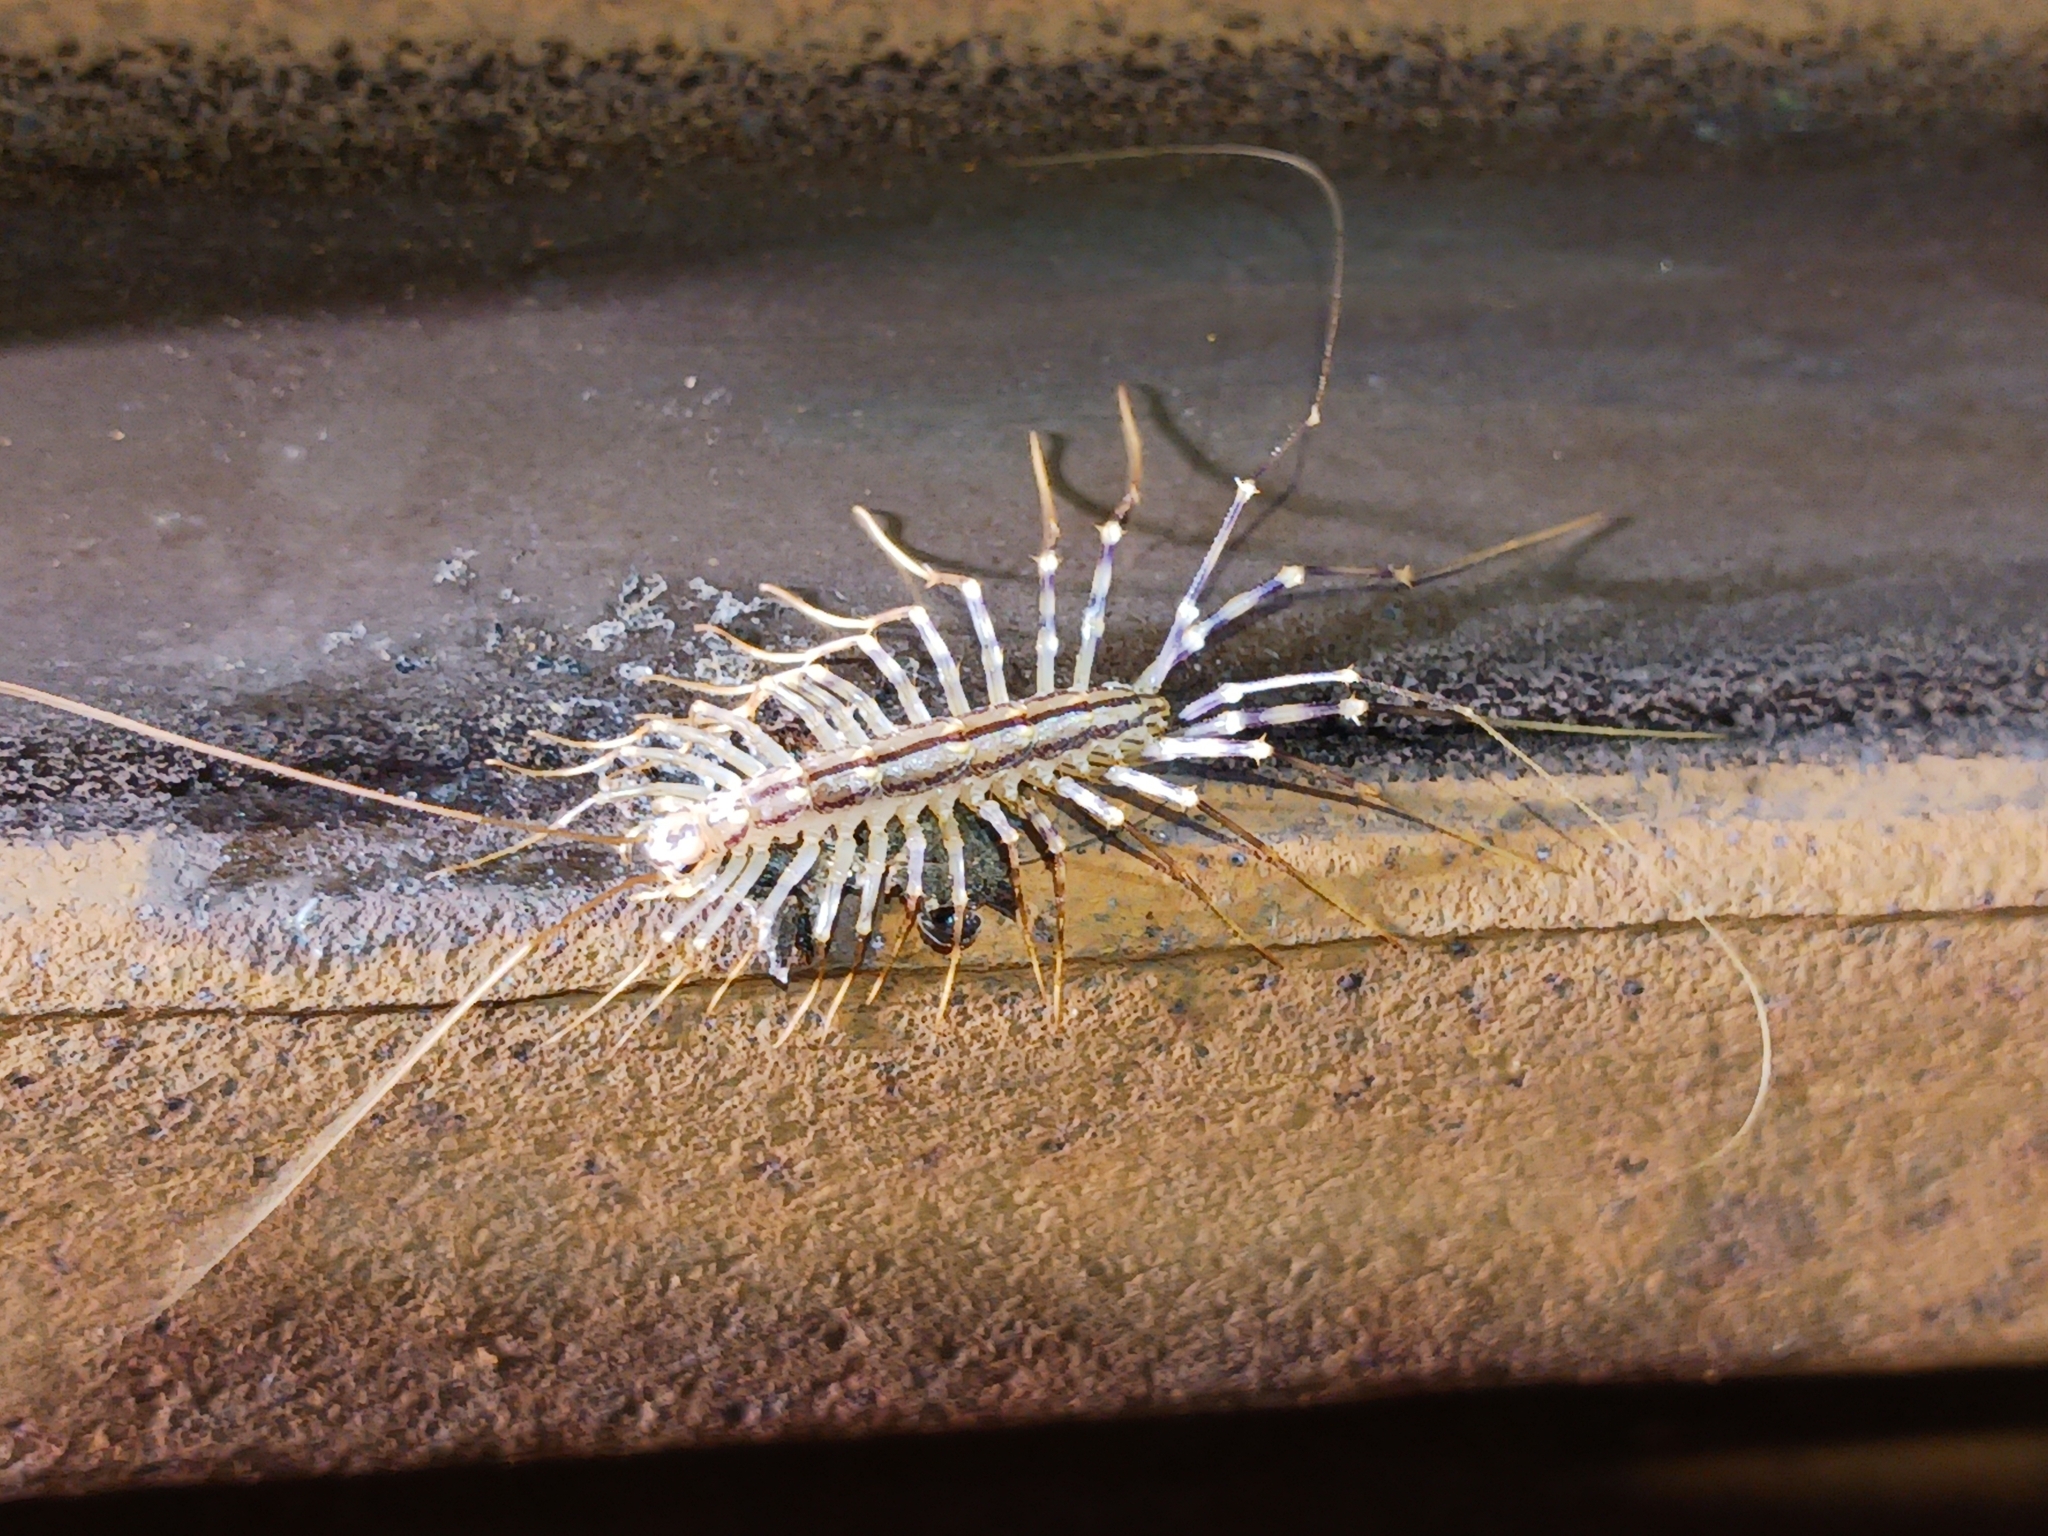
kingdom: Animalia
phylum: Arthropoda
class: Chilopoda
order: Scutigeromorpha
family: Scutigeridae
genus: Scutigera
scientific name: Scutigera coleoptrata
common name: House centipede
